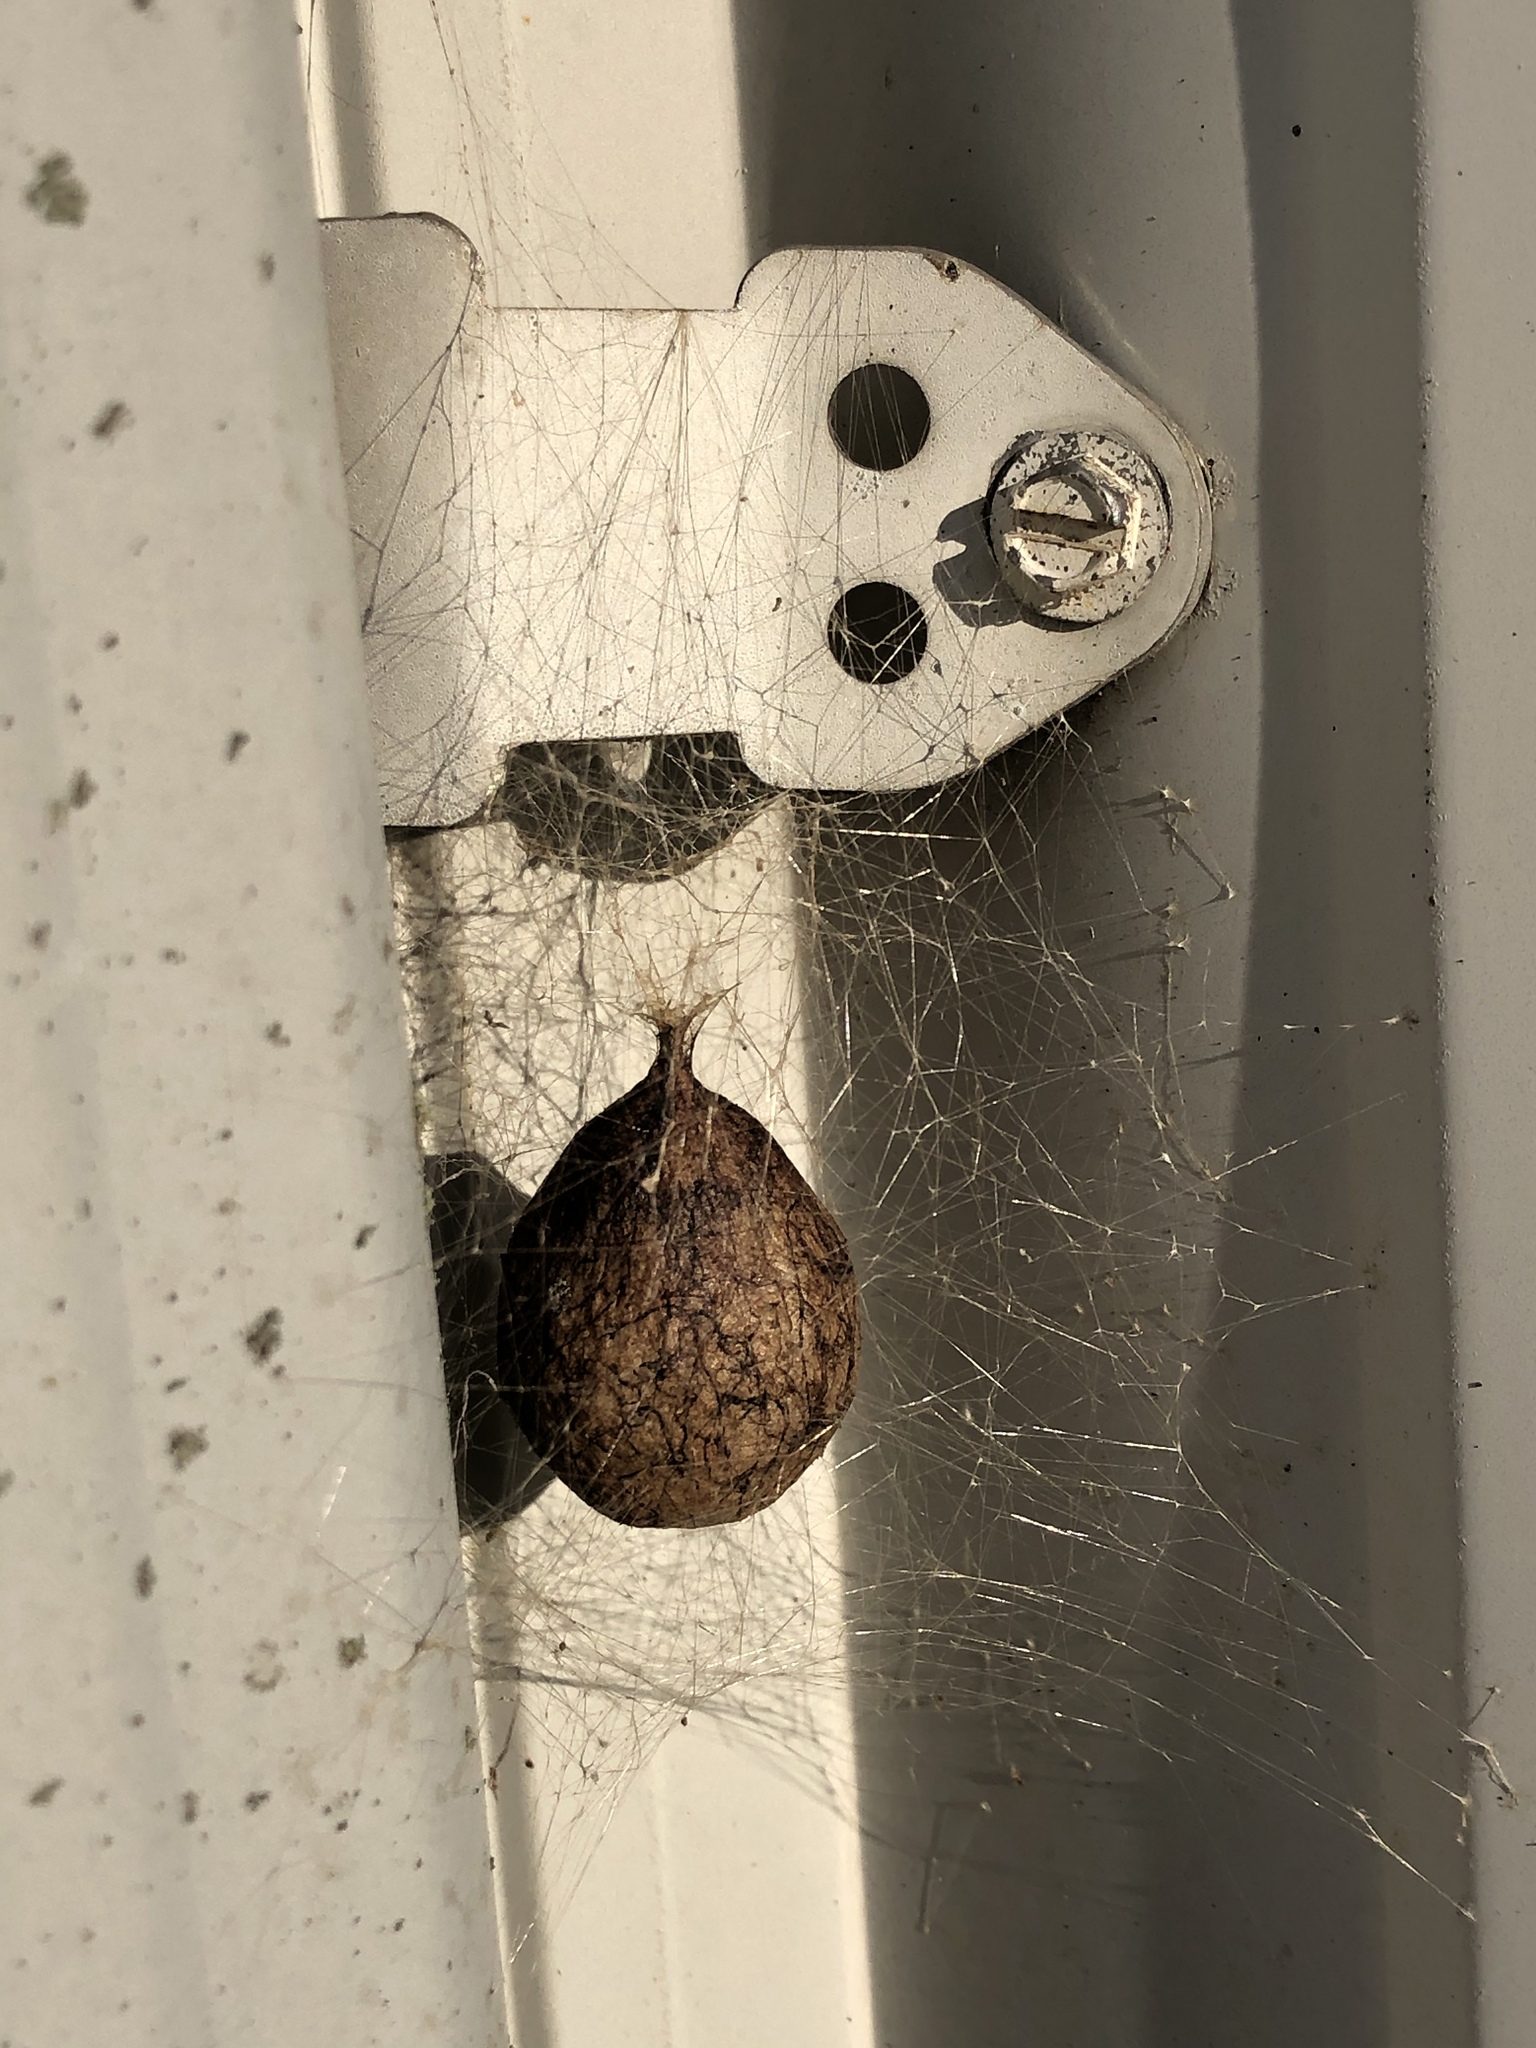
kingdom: Animalia
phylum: Arthropoda
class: Arachnida
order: Araneae
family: Araneidae
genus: Argiope
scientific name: Argiope aurantia
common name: Orb weavers
